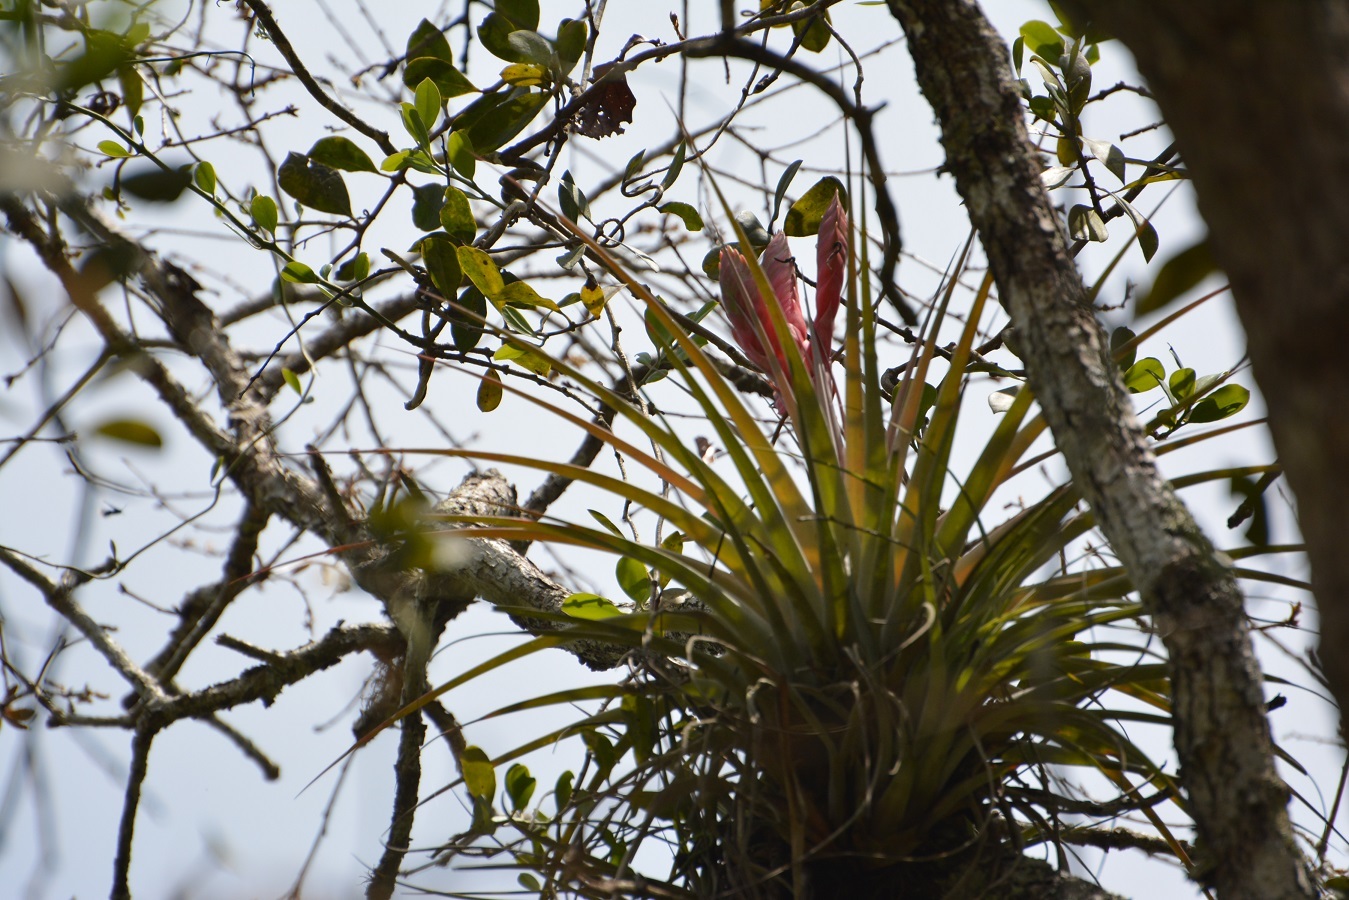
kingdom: Plantae
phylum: Tracheophyta
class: Liliopsida
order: Poales
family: Bromeliaceae
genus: Tillandsia
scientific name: Tillandsia zoquensis
